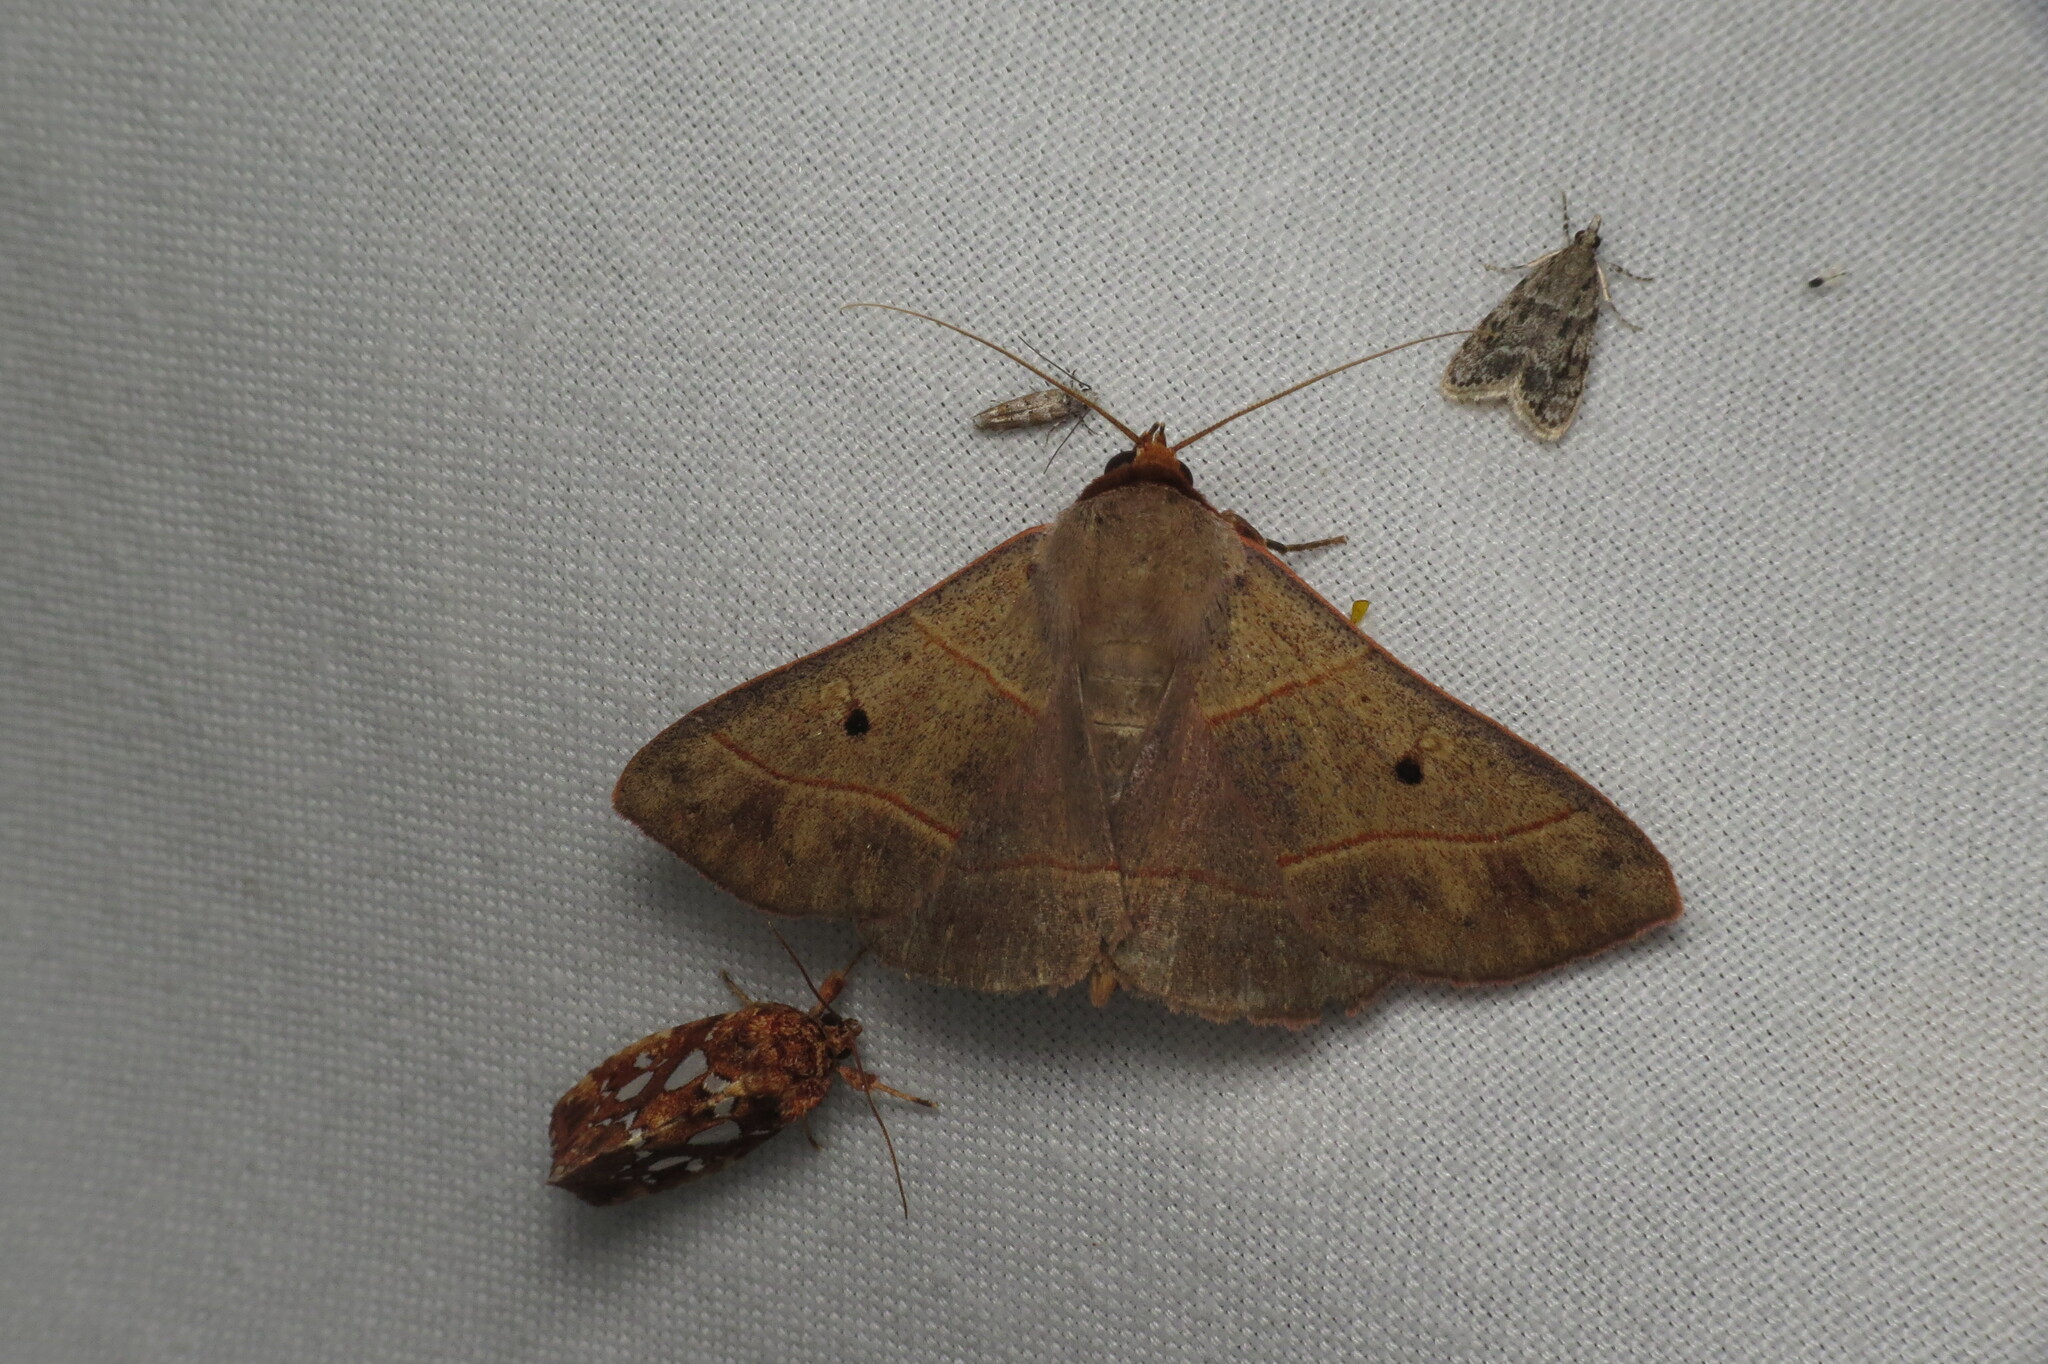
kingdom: Animalia
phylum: Arthropoda
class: Insecta
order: Lepidoptera
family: Erebidae
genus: Panopoda
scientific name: Panopoda rufimargo
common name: Red-lined panopoda moth
